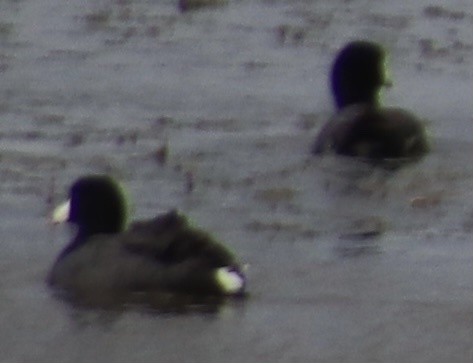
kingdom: Animalia
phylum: Chordata
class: Aves
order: Gruiformes
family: Rallidae
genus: Fulica
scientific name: Fulica americana
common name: American coot
